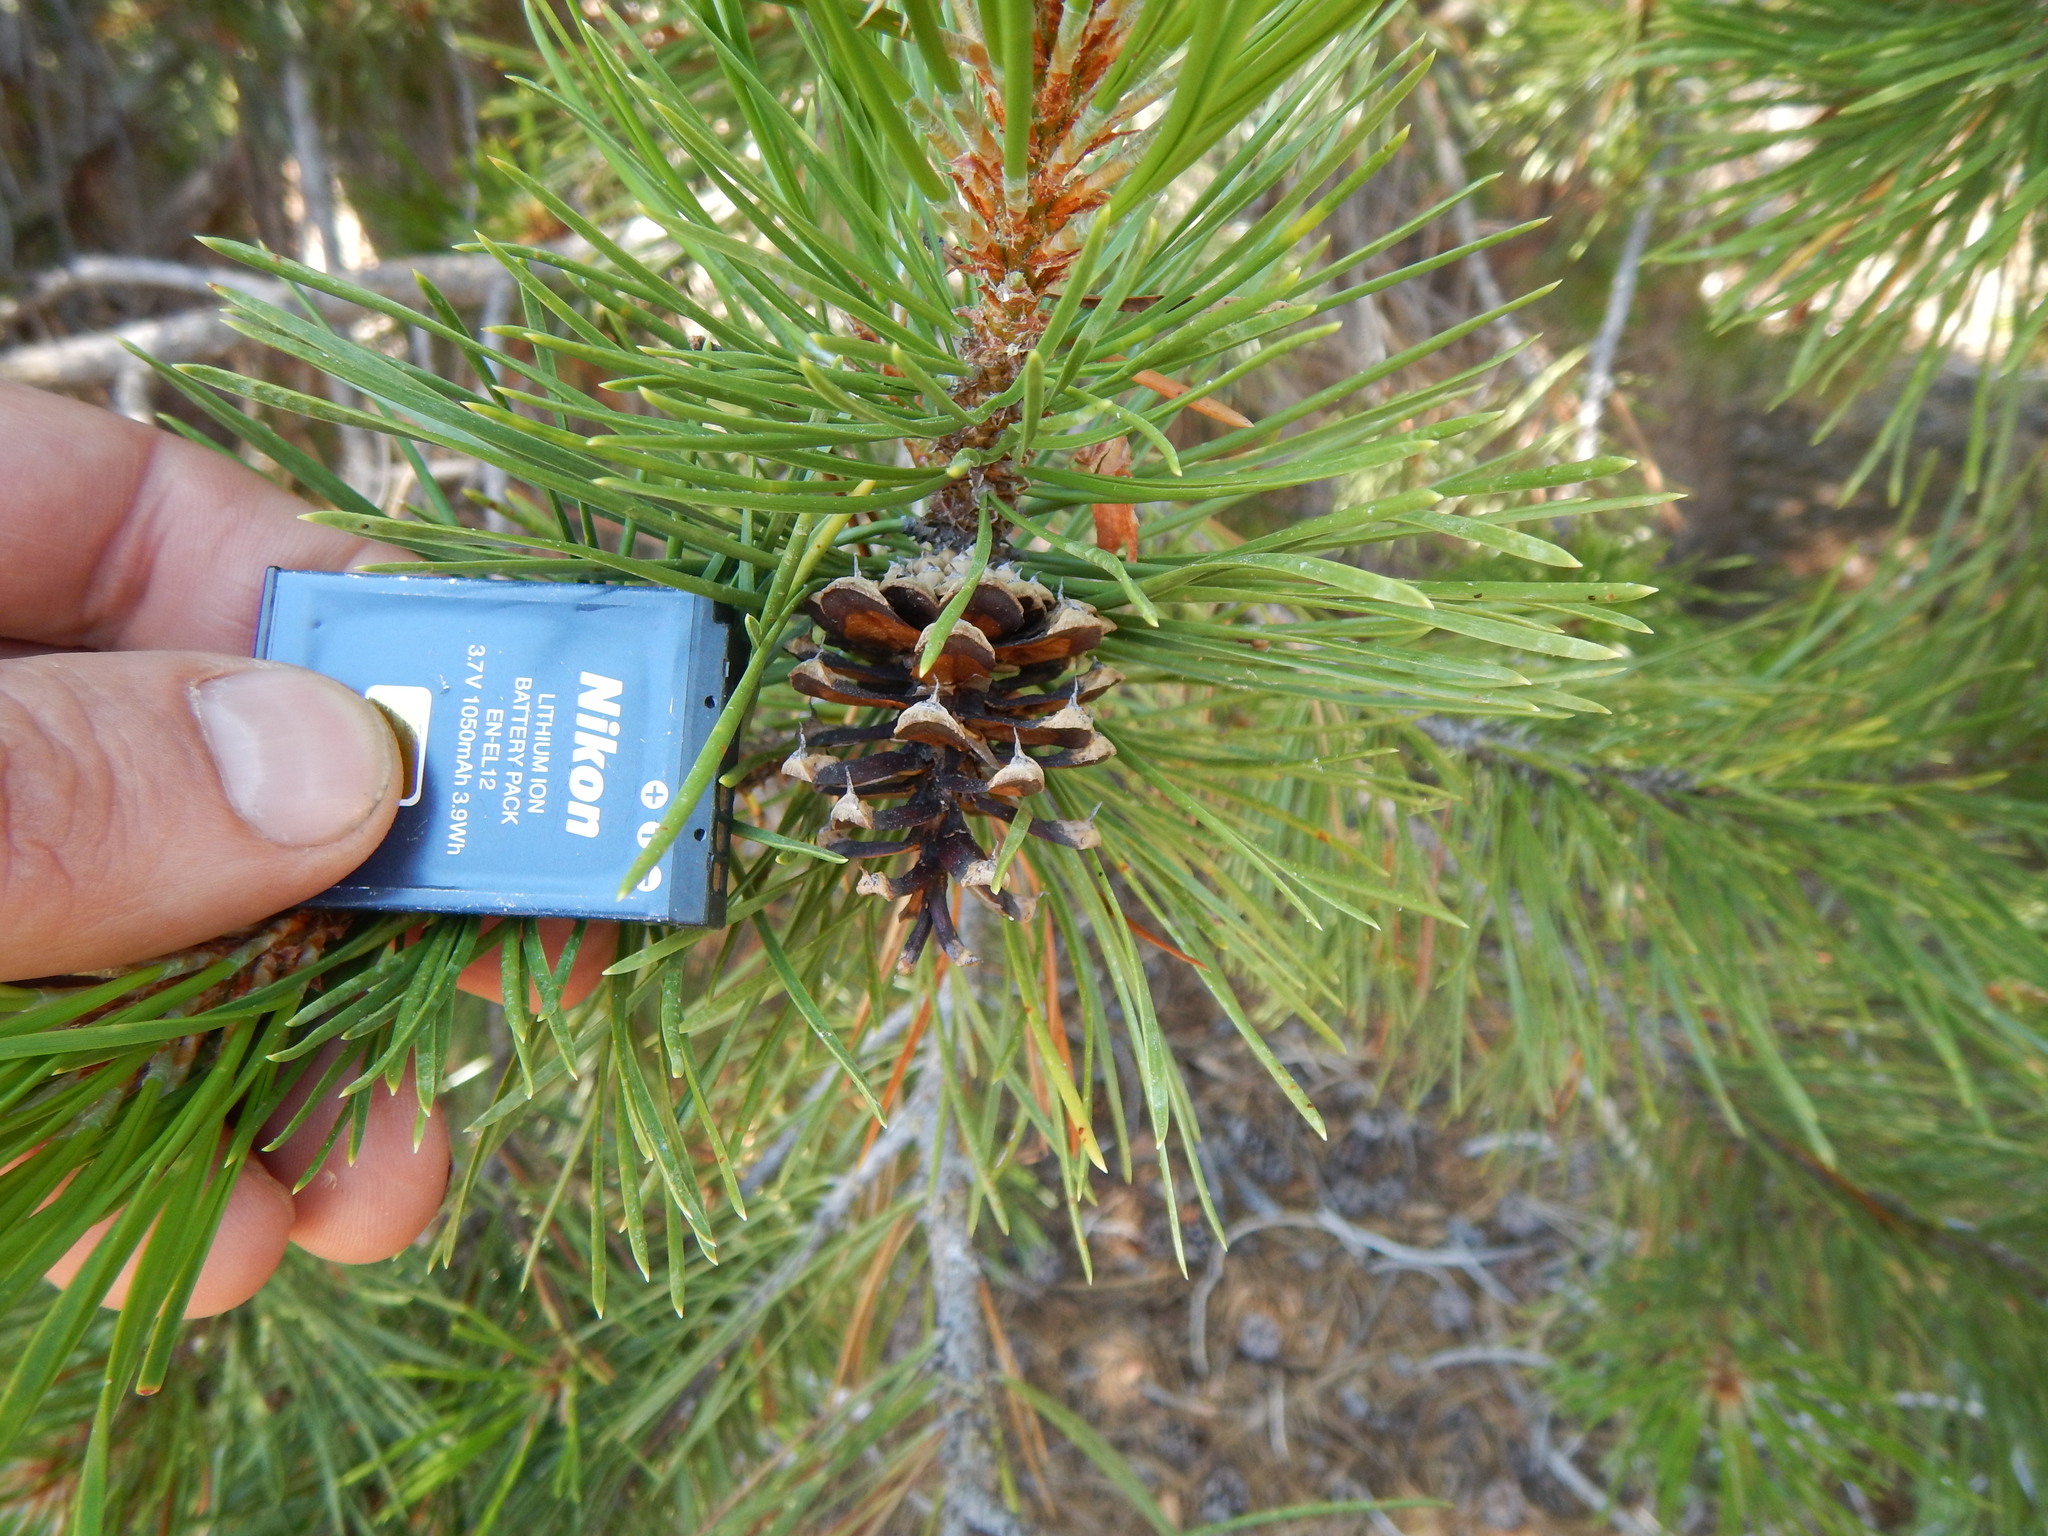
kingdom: Plantae
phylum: Tracheophyta
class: Pinopsida
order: Pinales
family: Pinaceae
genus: Pinus
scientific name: Pinus contorta
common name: Lodgepole pine
